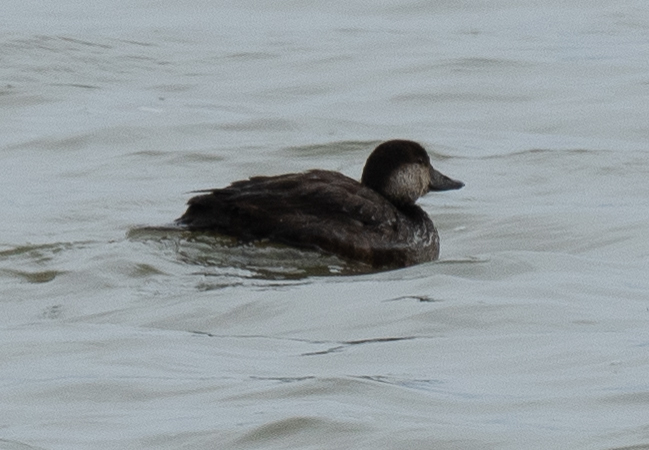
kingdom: Animalia
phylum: Chordata
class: Aves
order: Anseriformes
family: Anatidae
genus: Melanitta
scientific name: Melanitta americana
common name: Black scoter
